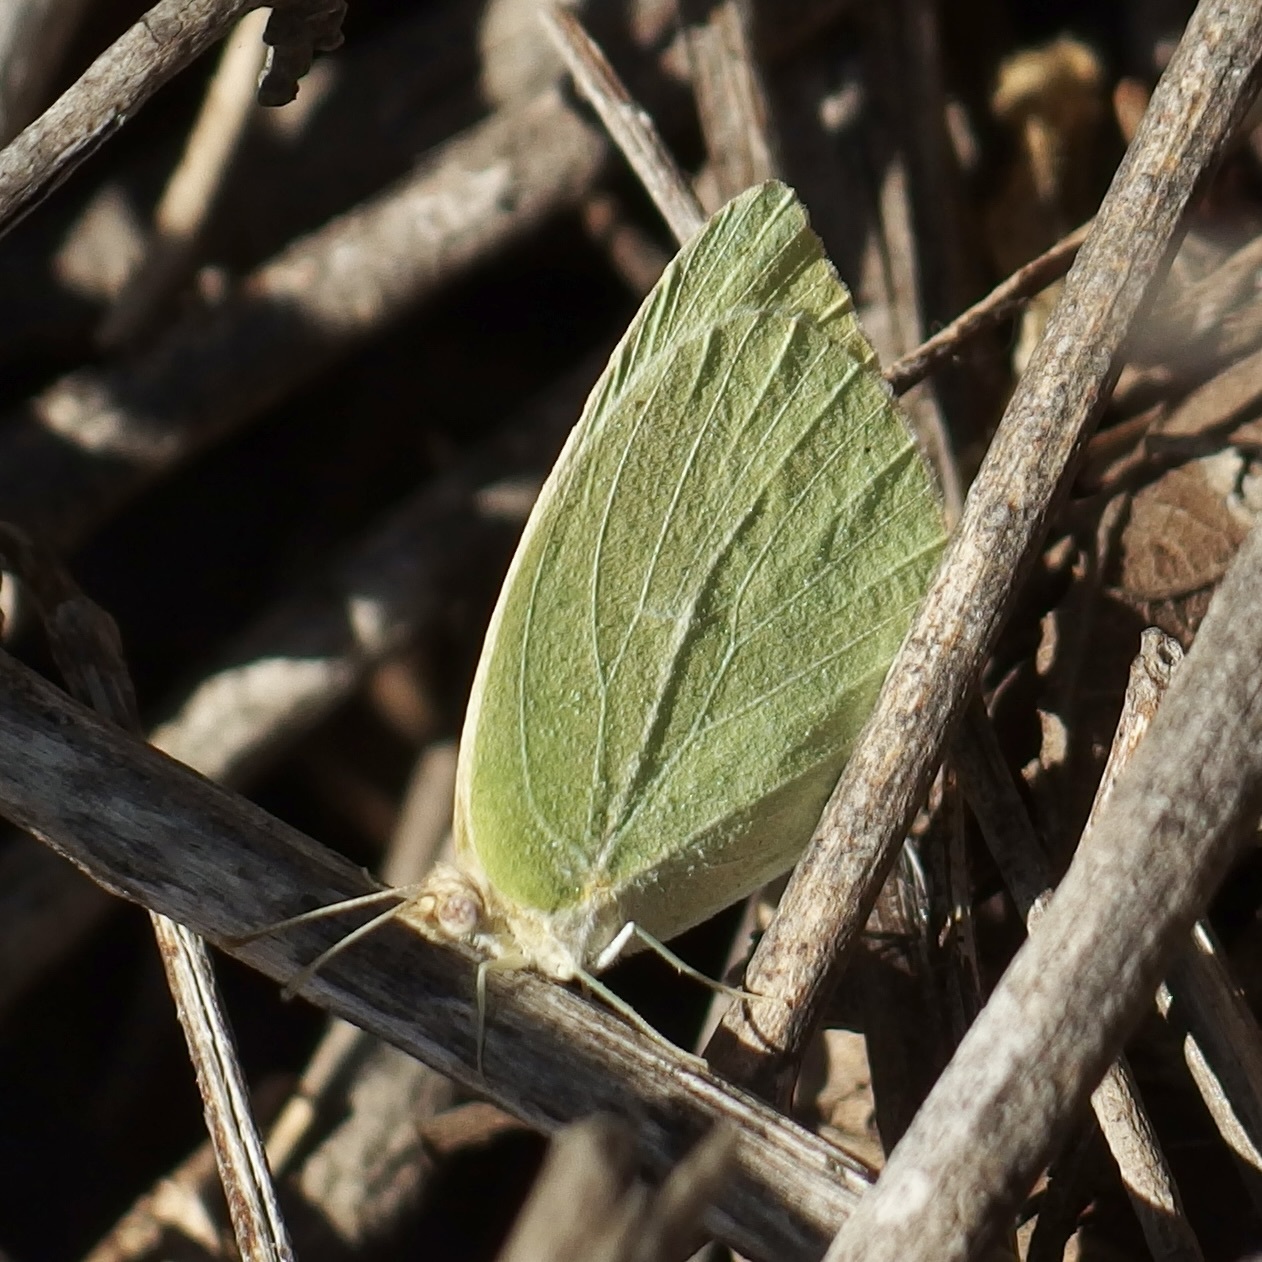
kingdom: Animalia
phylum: Arthropoda
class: Insecta
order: Lepidoptera
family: Pieridae
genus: Kricogonia
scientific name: Kricogonia lyside
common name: Guayacan sulphur,
